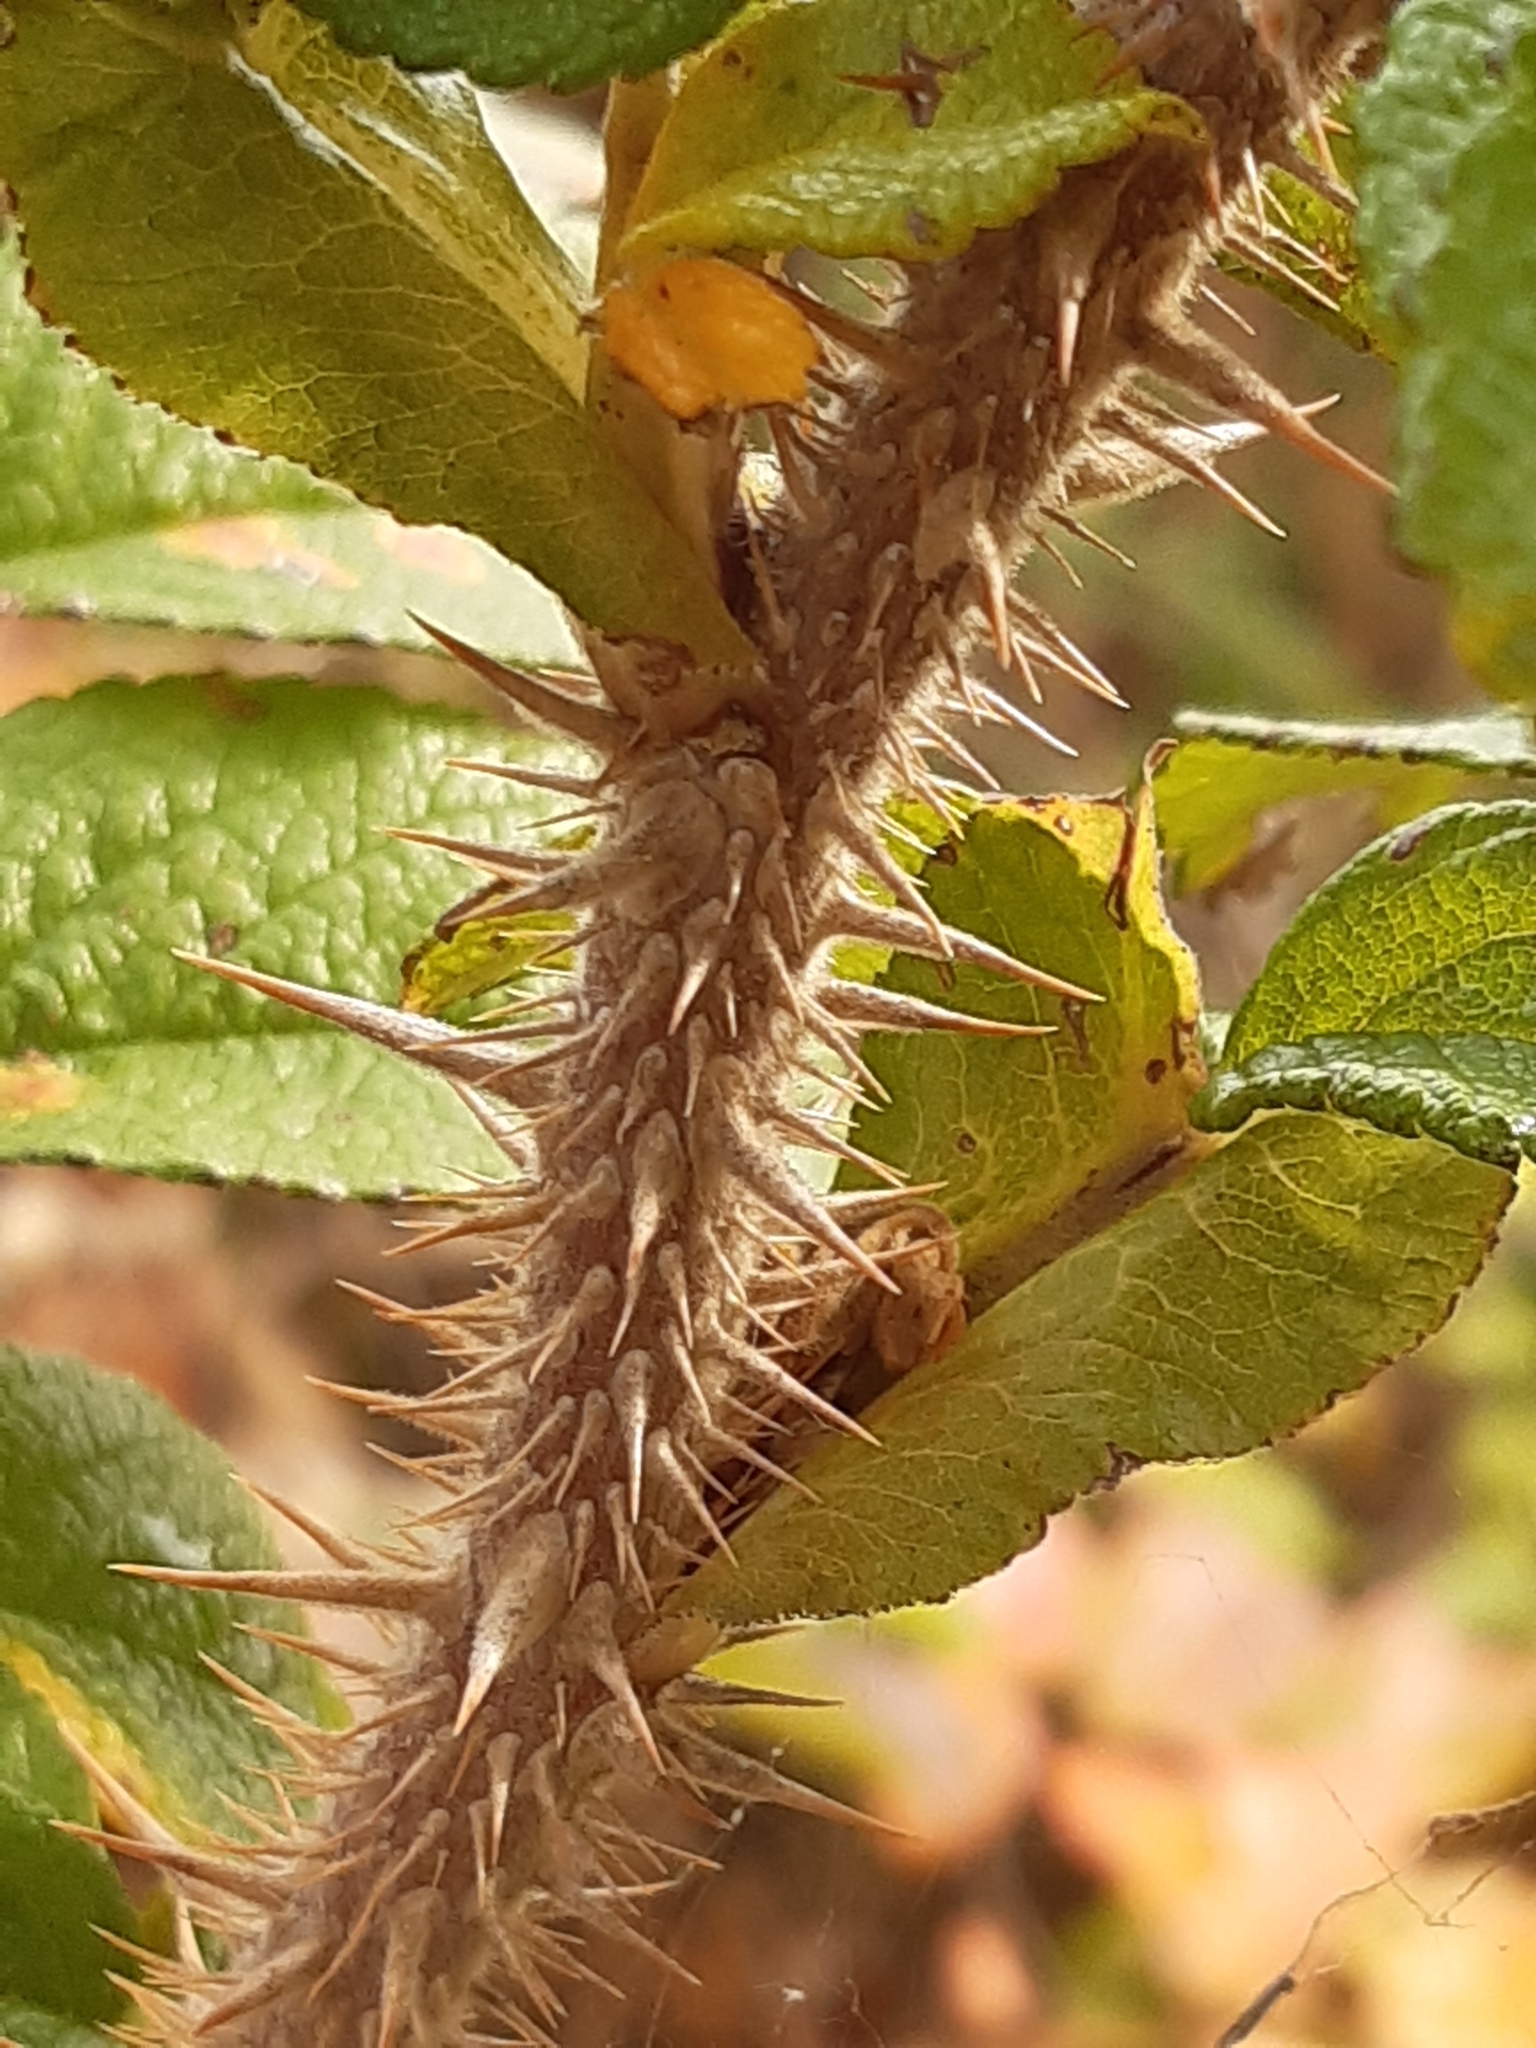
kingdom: Plantae
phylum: Tracheophyta
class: Magnoliopsida
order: Rosales
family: Rosaceae
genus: Rosa
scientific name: Rosa rugosa
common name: Japanese rose
